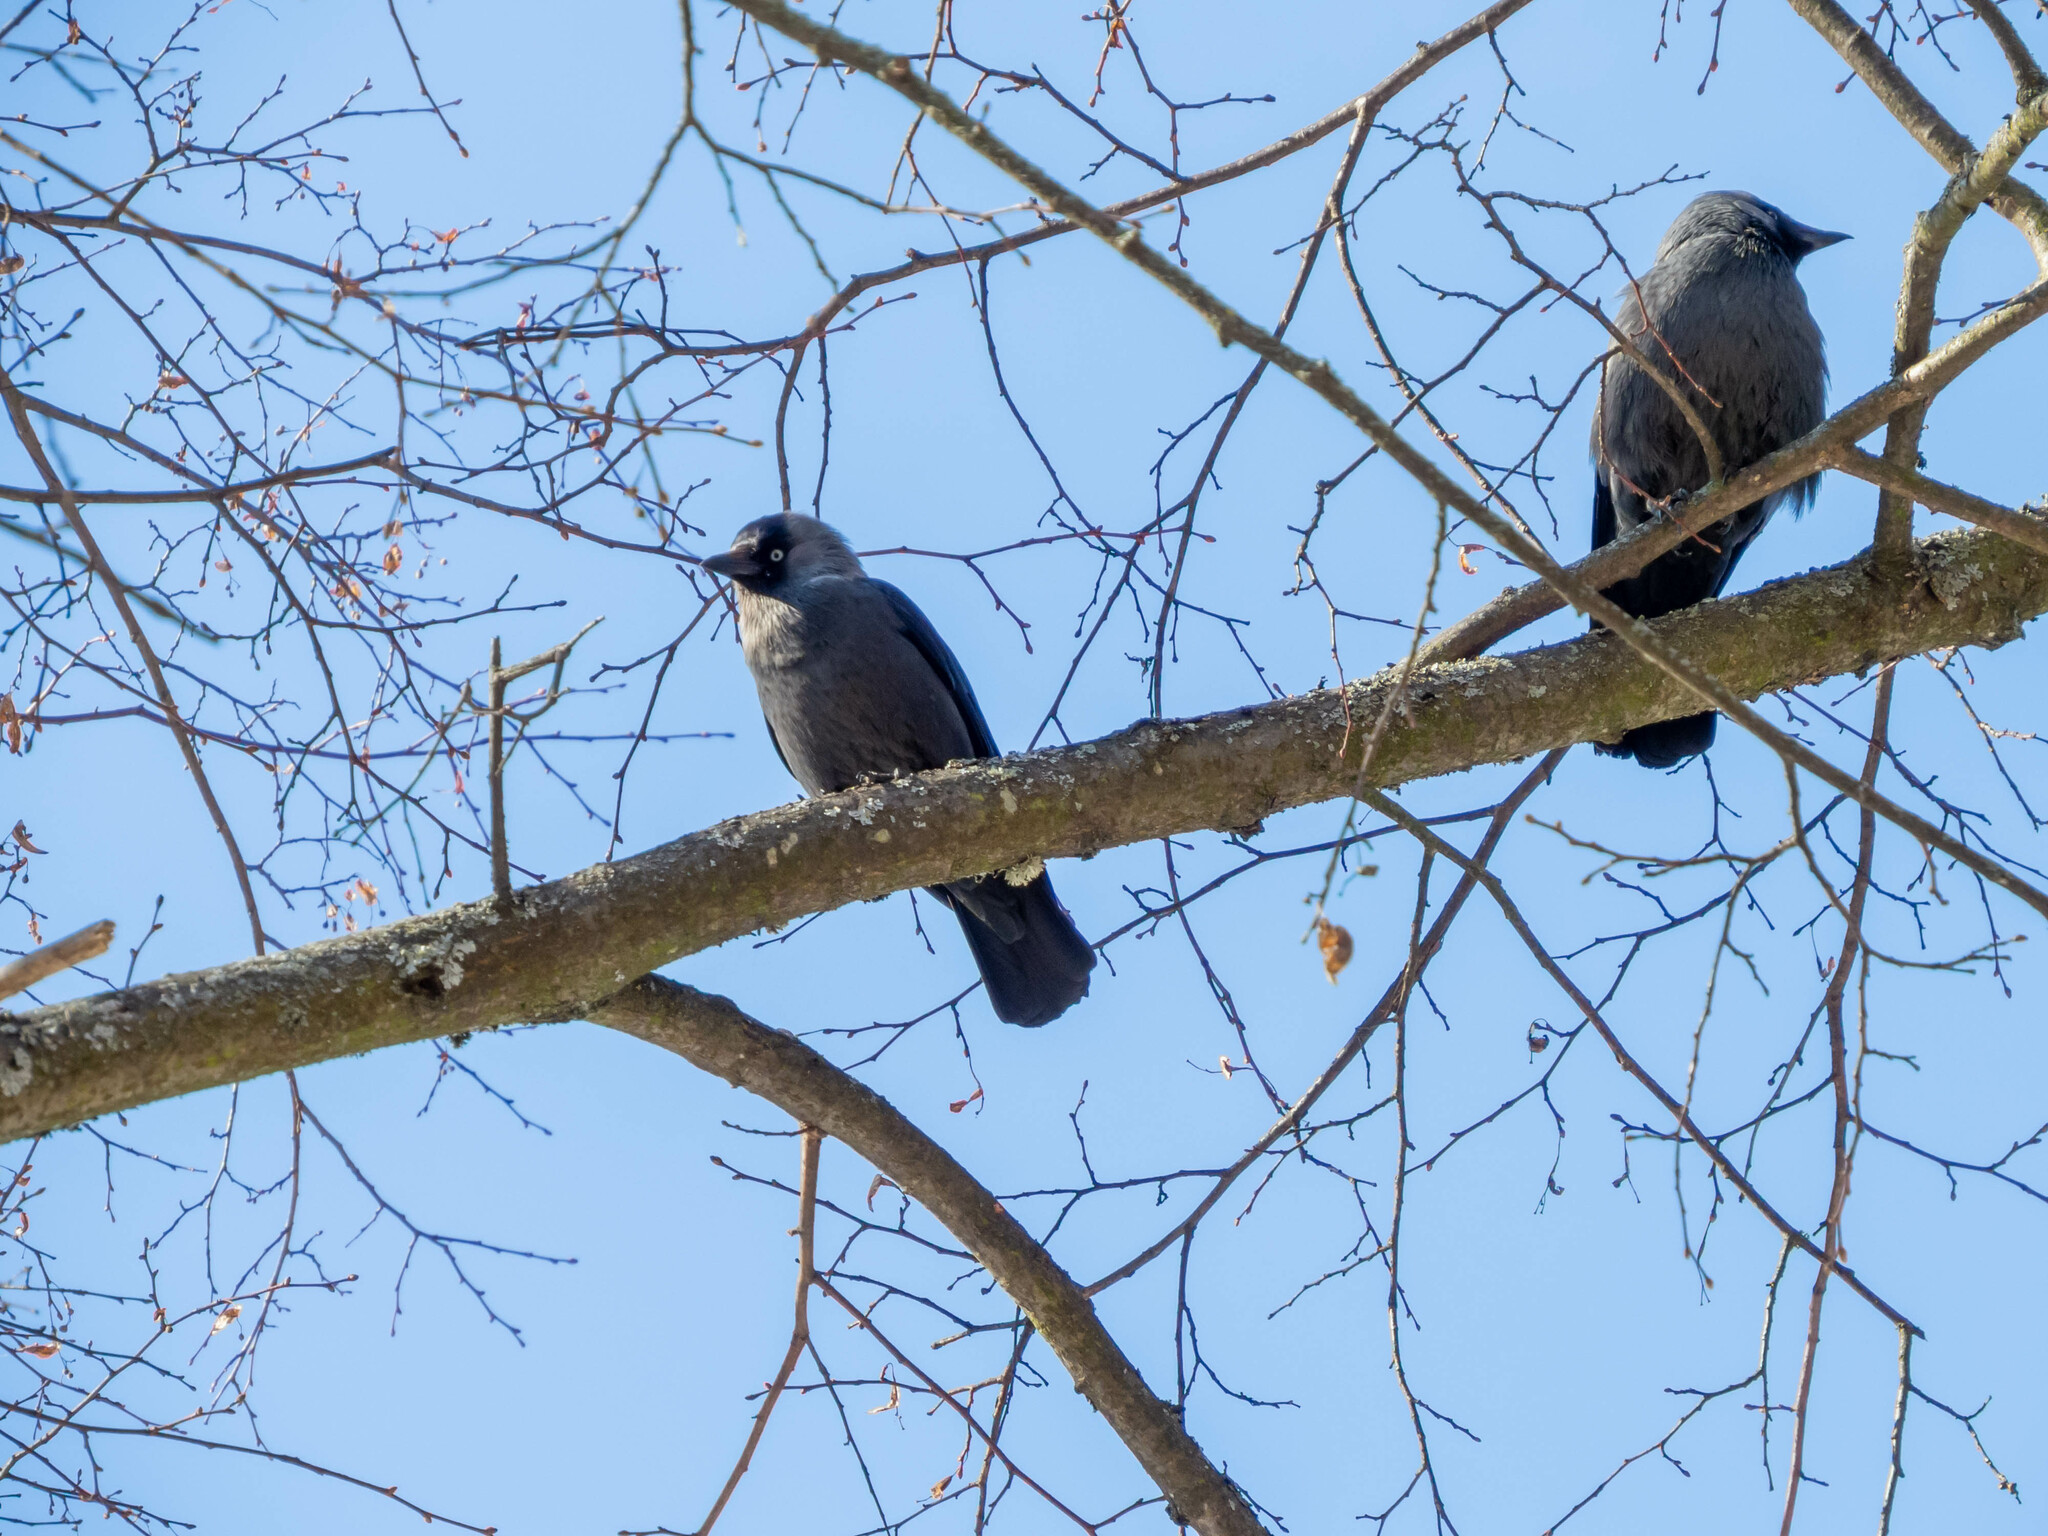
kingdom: Animalia
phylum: Chordata
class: Aves
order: Passeriformes
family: Corvidae
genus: Coloeus
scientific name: Coloeus monedula
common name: Western jackdaw
